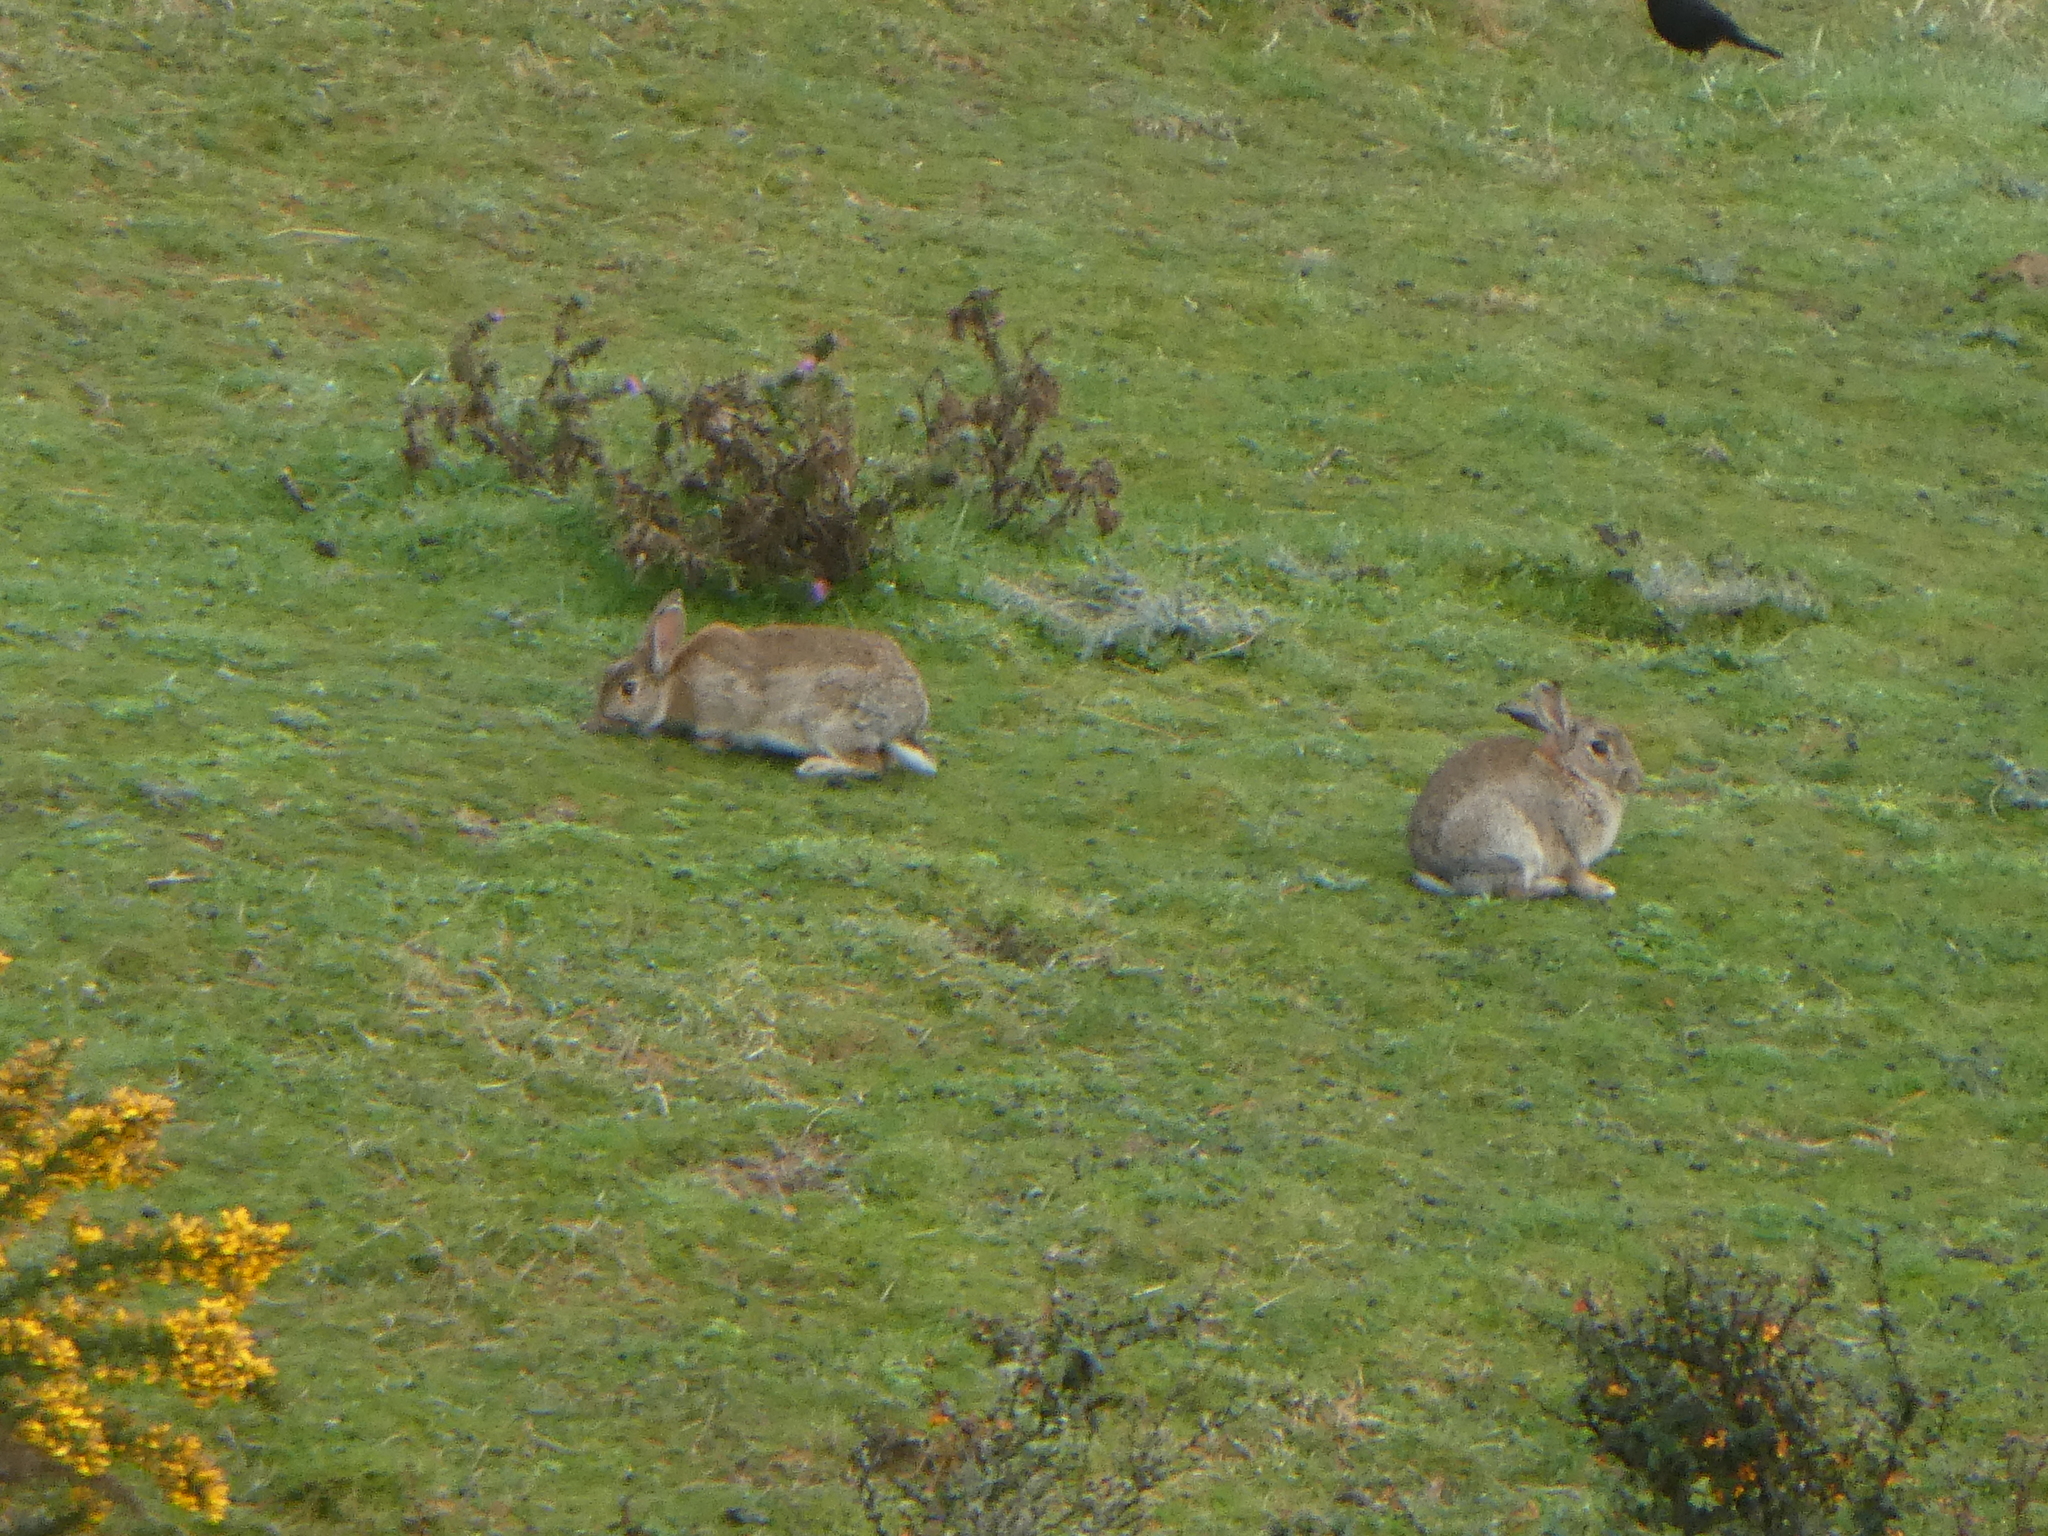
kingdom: Animalia
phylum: Chordata
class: Mammalia
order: Lagomorpha
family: Leporidae
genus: Oryctolagus
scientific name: Oryctolagus cuniculus
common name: European rabbit
